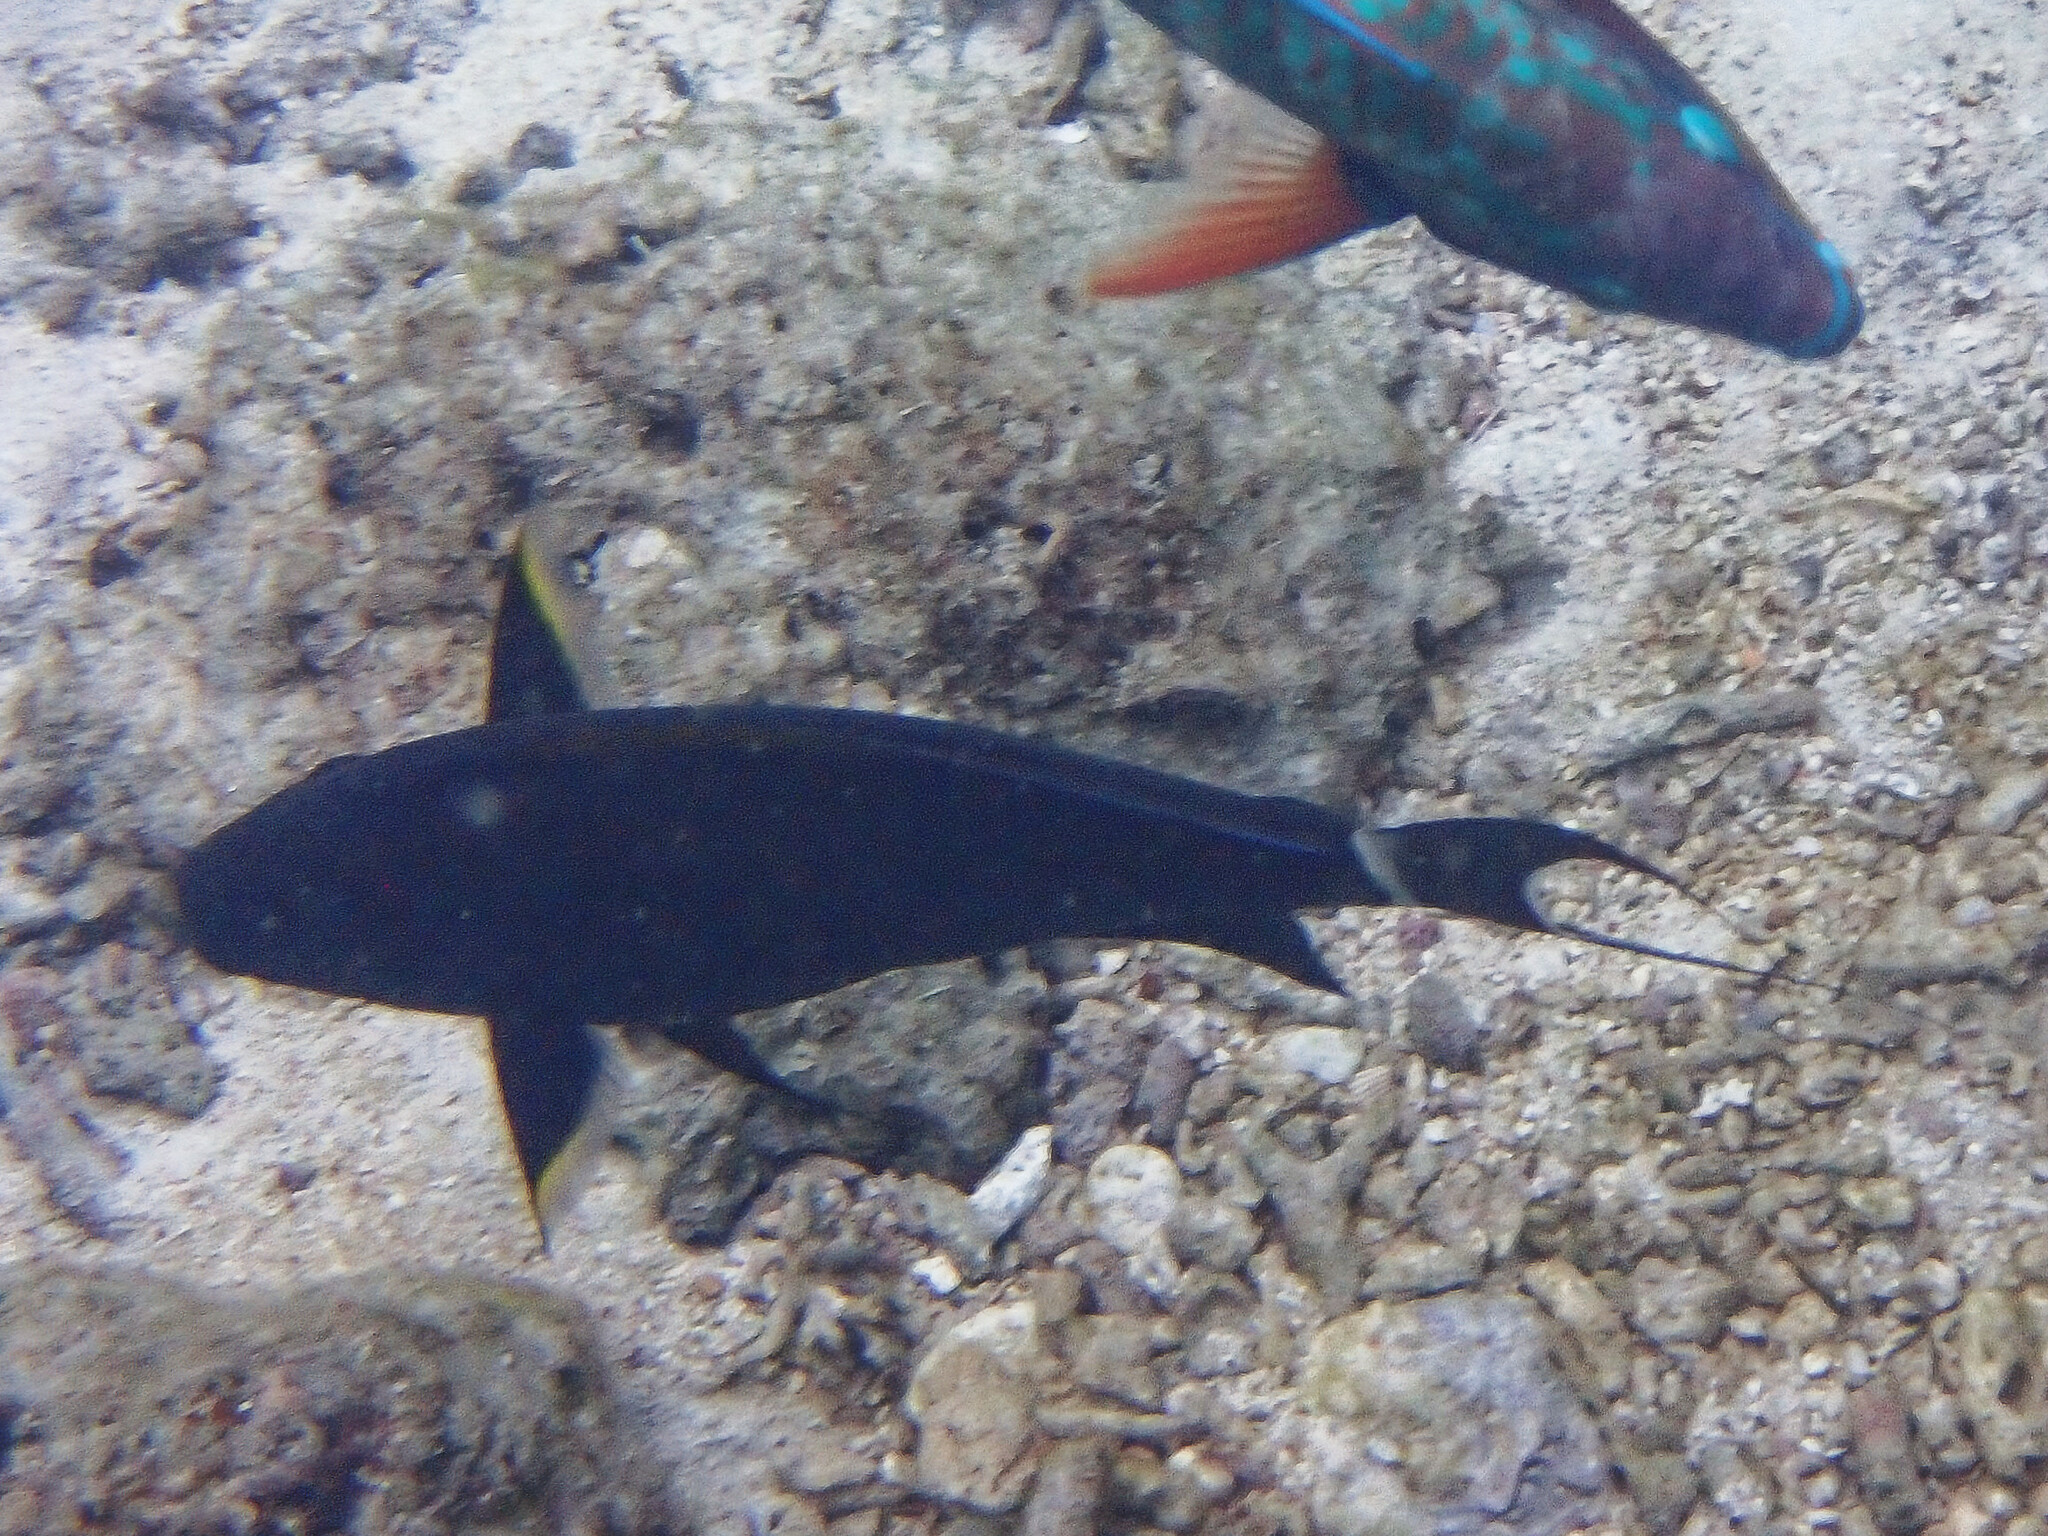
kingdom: Animalia
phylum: Chordata
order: Perciformes
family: Acanthuridae
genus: Acanthurus
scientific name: Acanthurus nigricauda
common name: Black-barred surgeonfish
